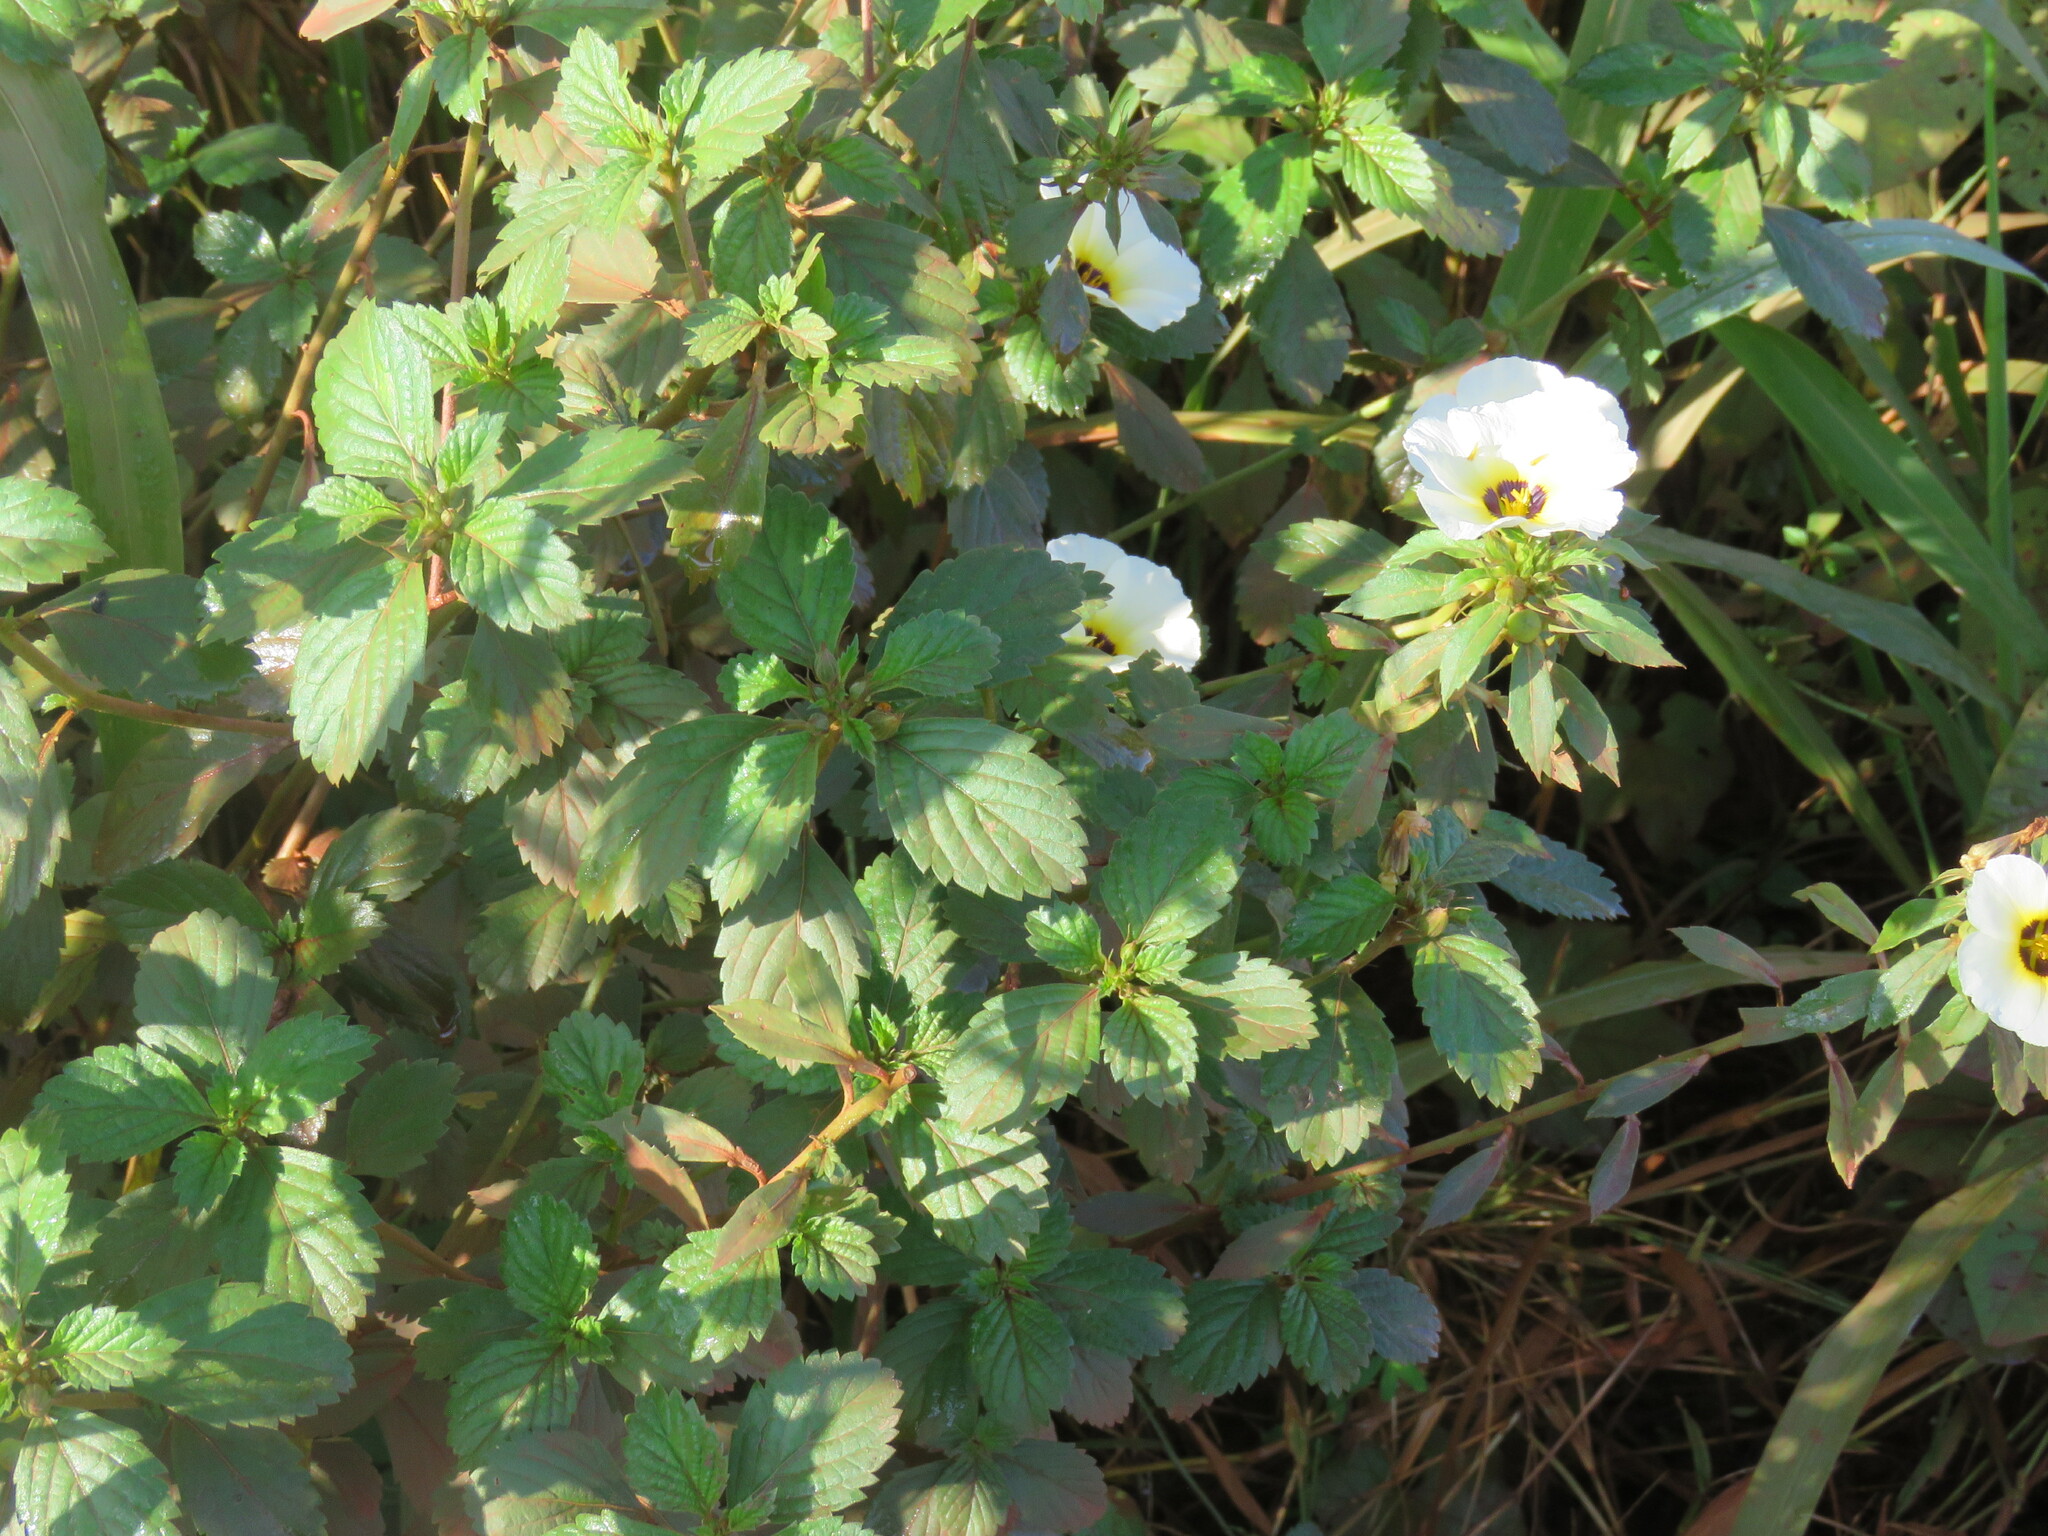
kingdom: Plantae
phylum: Tracheophyta
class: Magnoliopsida
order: Malpighiales
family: Turneraceae
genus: Turnera
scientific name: Turnera subulata
